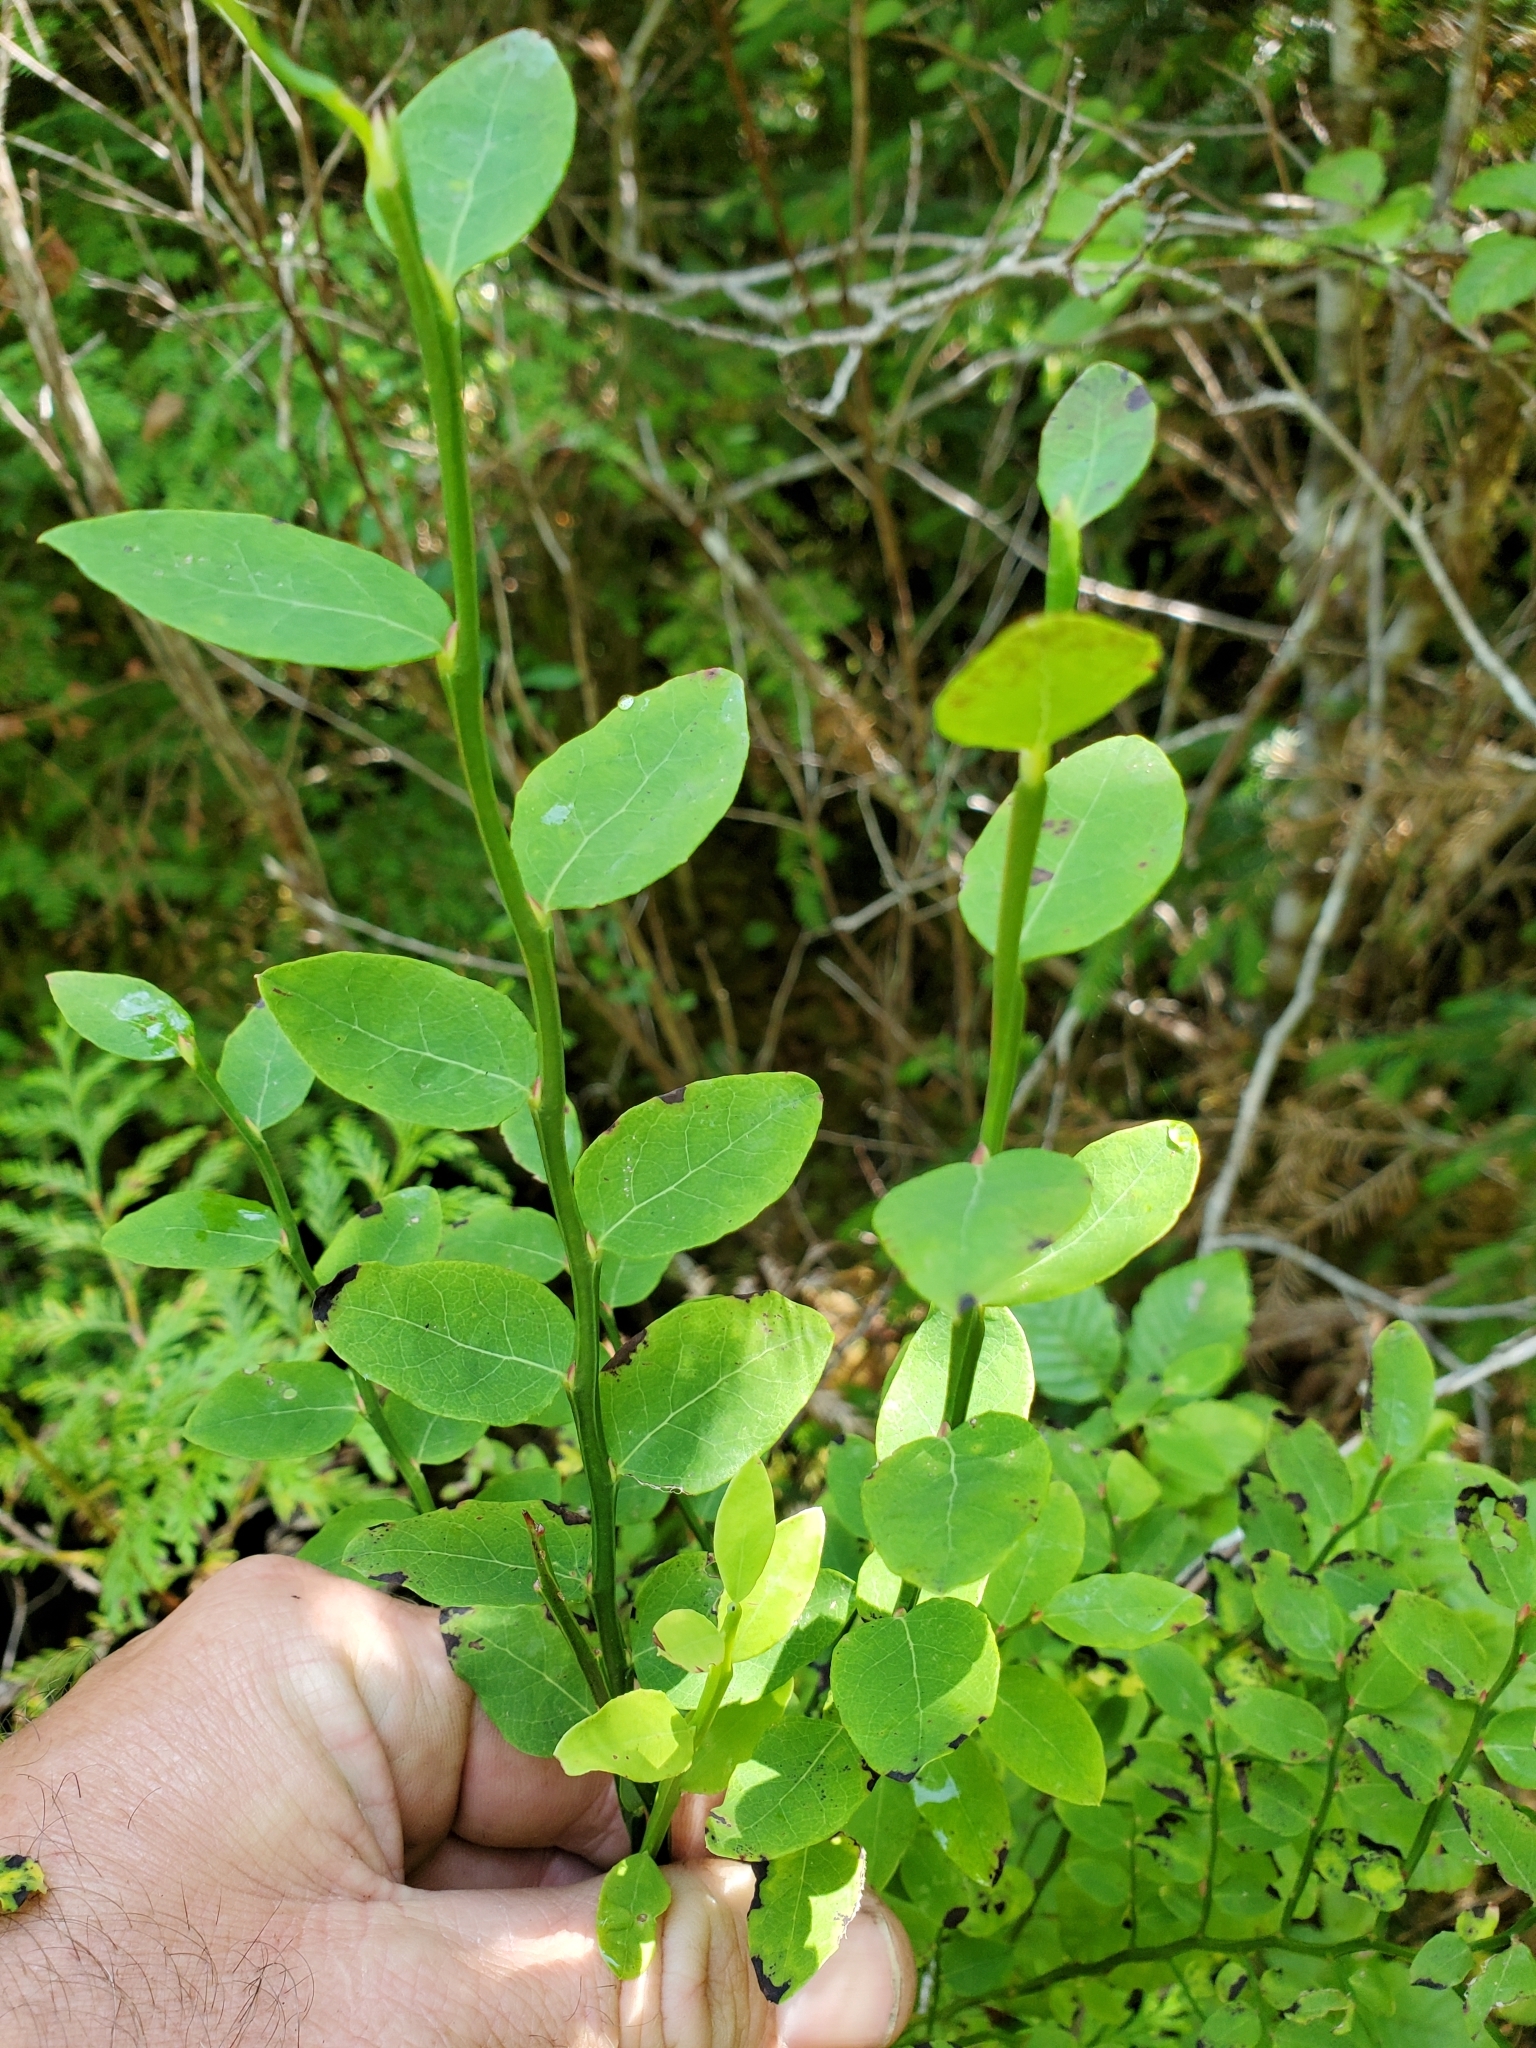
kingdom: Plantae
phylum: Tracheophyta
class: Magnoliopsida
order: Ericales
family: Ericaceae
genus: Vaccinium
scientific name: Vaccinium parvifolium
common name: Red-huckleberry
